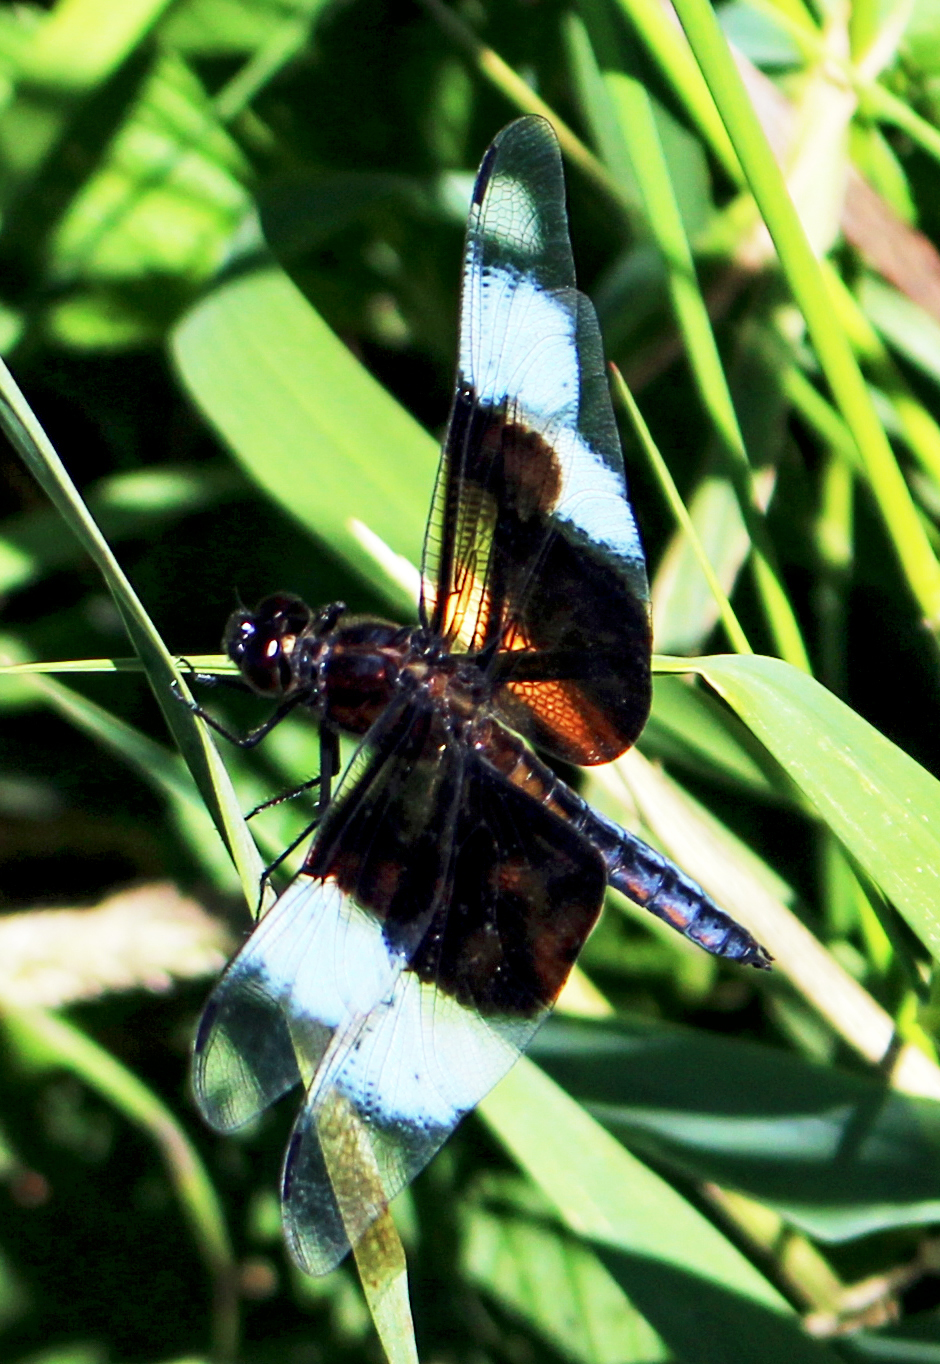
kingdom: Animalia
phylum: Arthropoda
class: Insecta
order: Odonata
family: Libellulidae
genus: Libellula
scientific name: Libellula luctuosa
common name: Widow skimmer
